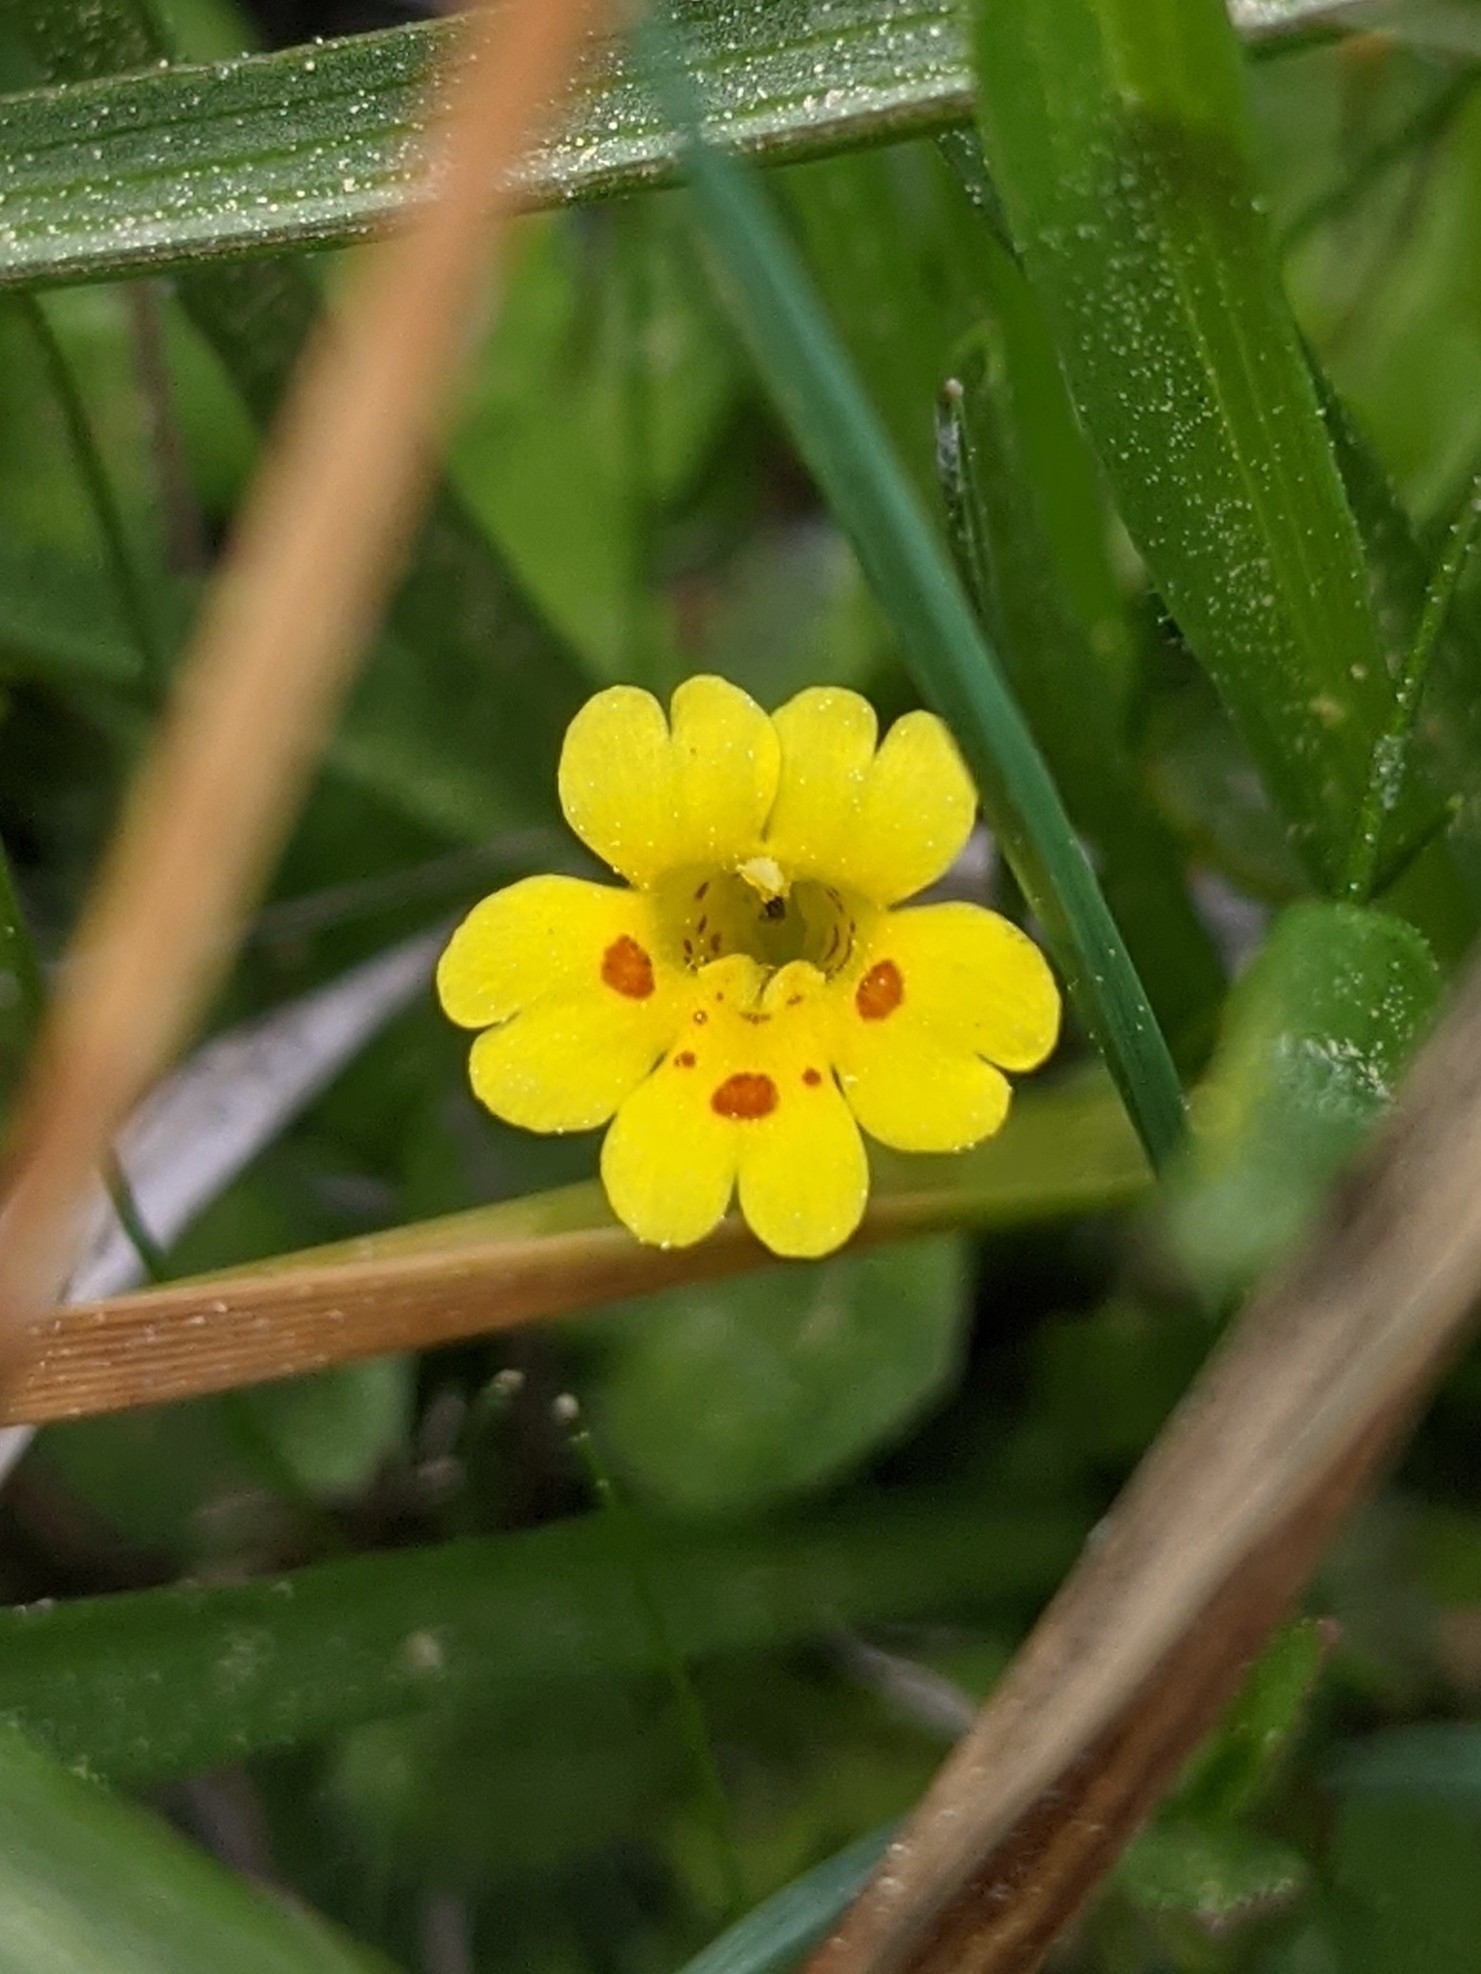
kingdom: Plantae
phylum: Tracheophyta
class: Magnoliopsida
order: Lamiales
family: Phrymaceae
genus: Erythranthe
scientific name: Erythranthe primuloides
